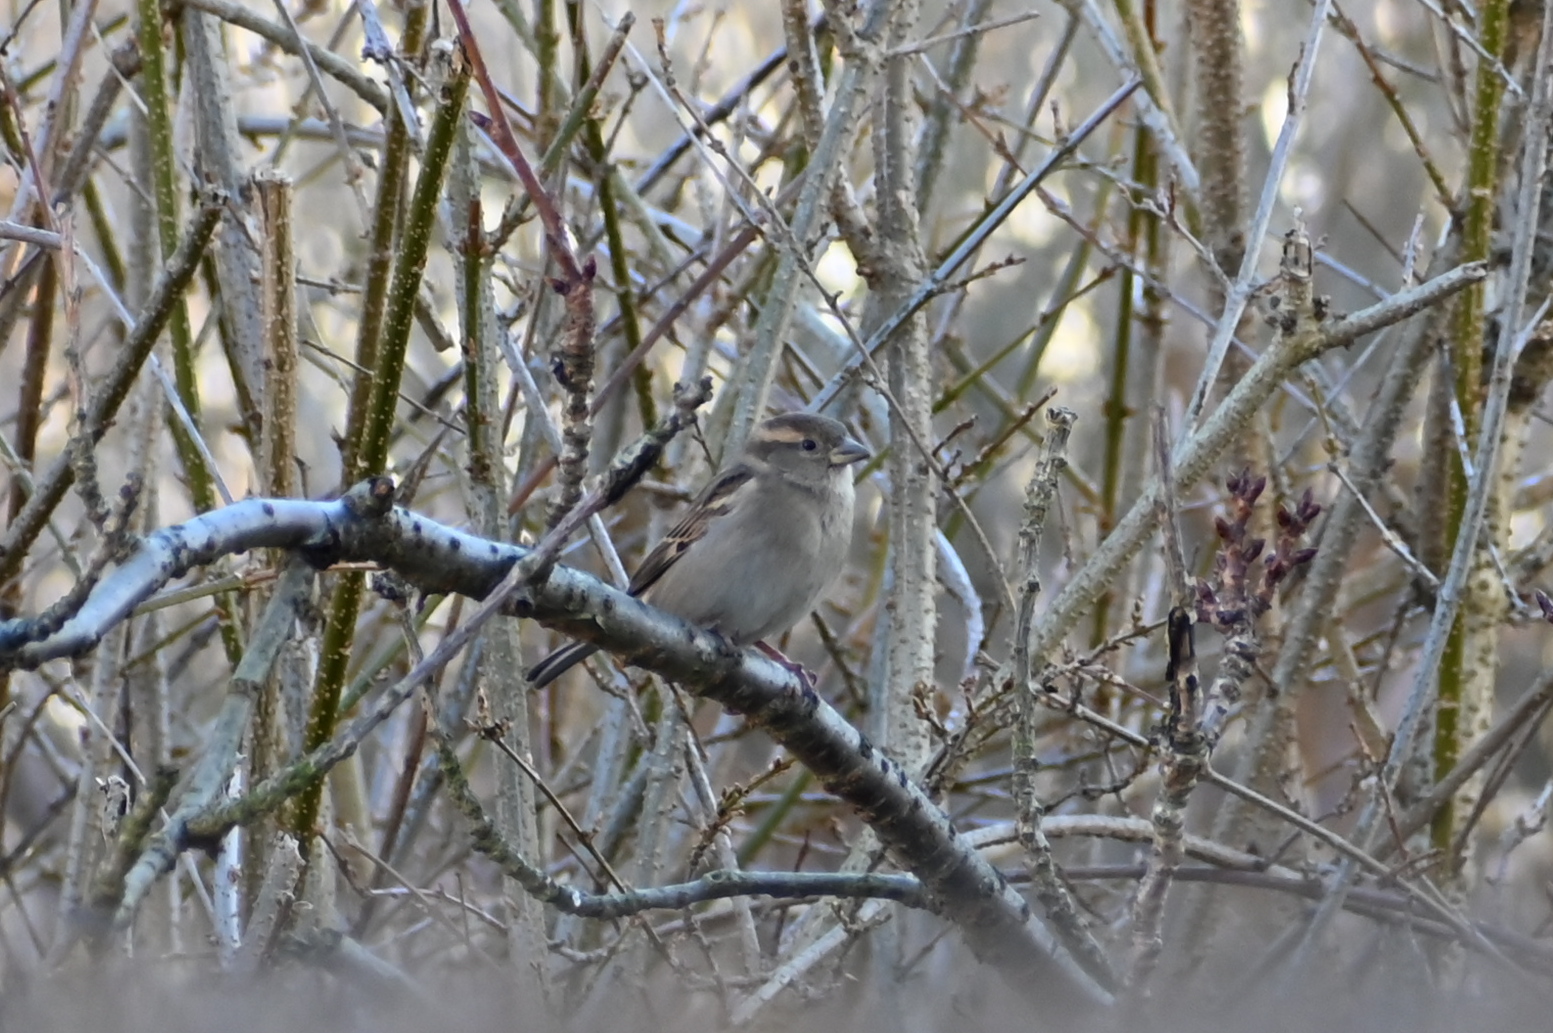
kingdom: Animalia
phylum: Chordata
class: Aves
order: Passeriformes
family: Passeridae
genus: Passer
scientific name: Passer domesticus
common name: House sparrow
